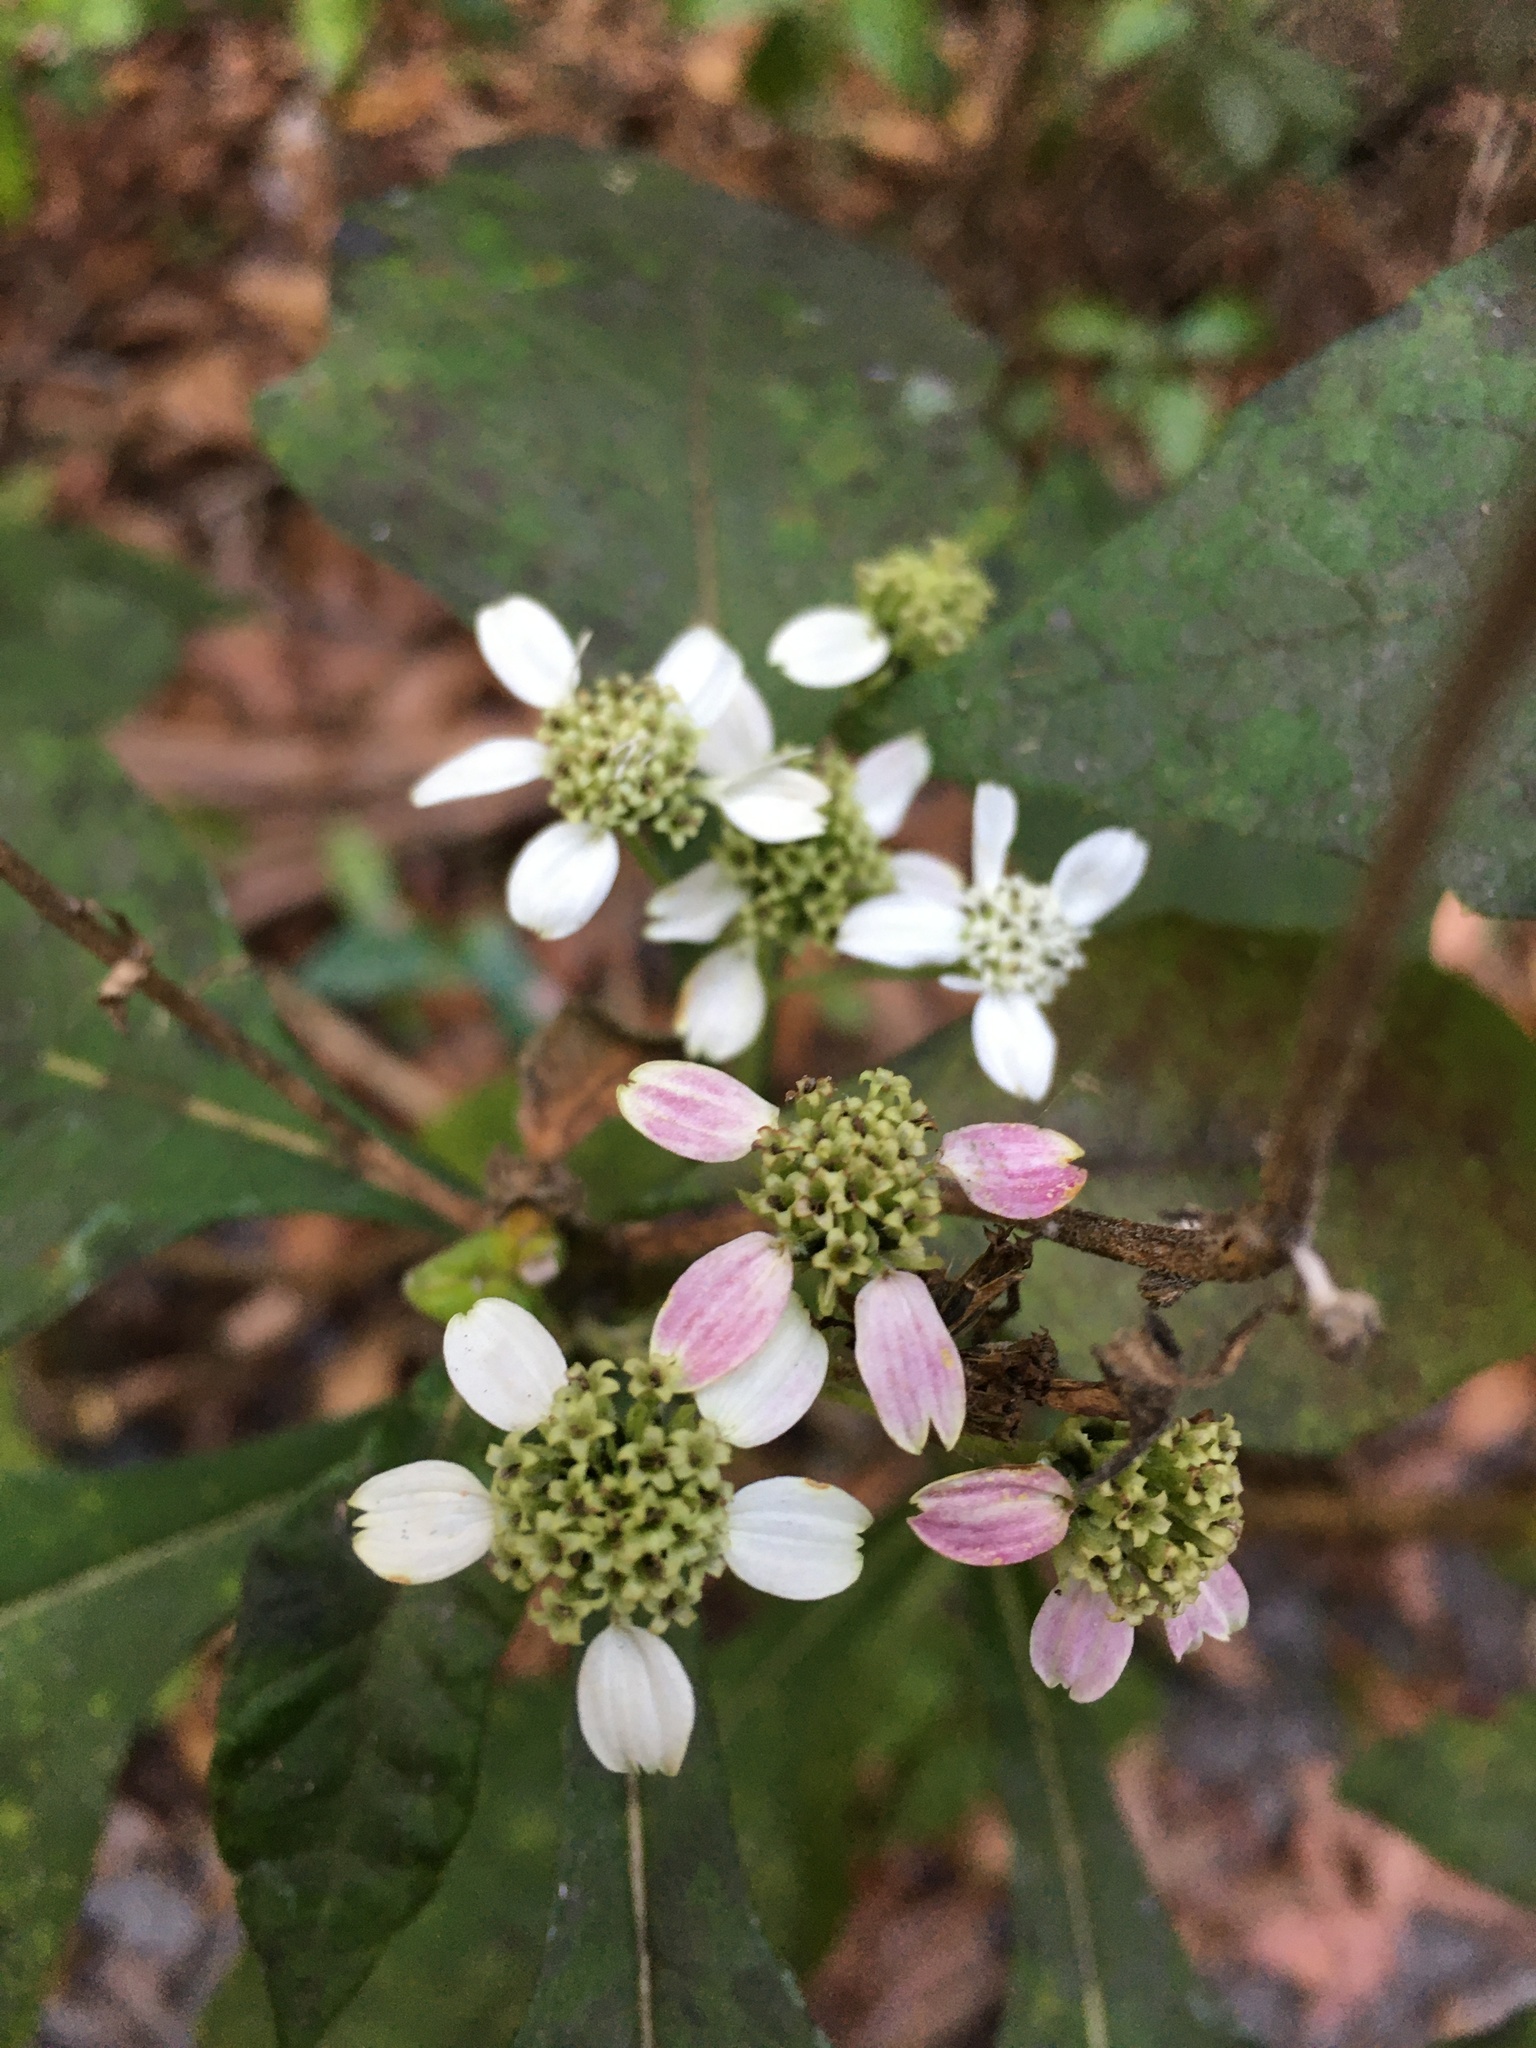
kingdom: Plantae
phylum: Tracheophyta
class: Magnoliopsida
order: Asterales
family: Asteraceae
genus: Verbesina
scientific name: Verbesina virginica
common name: Frostweed
